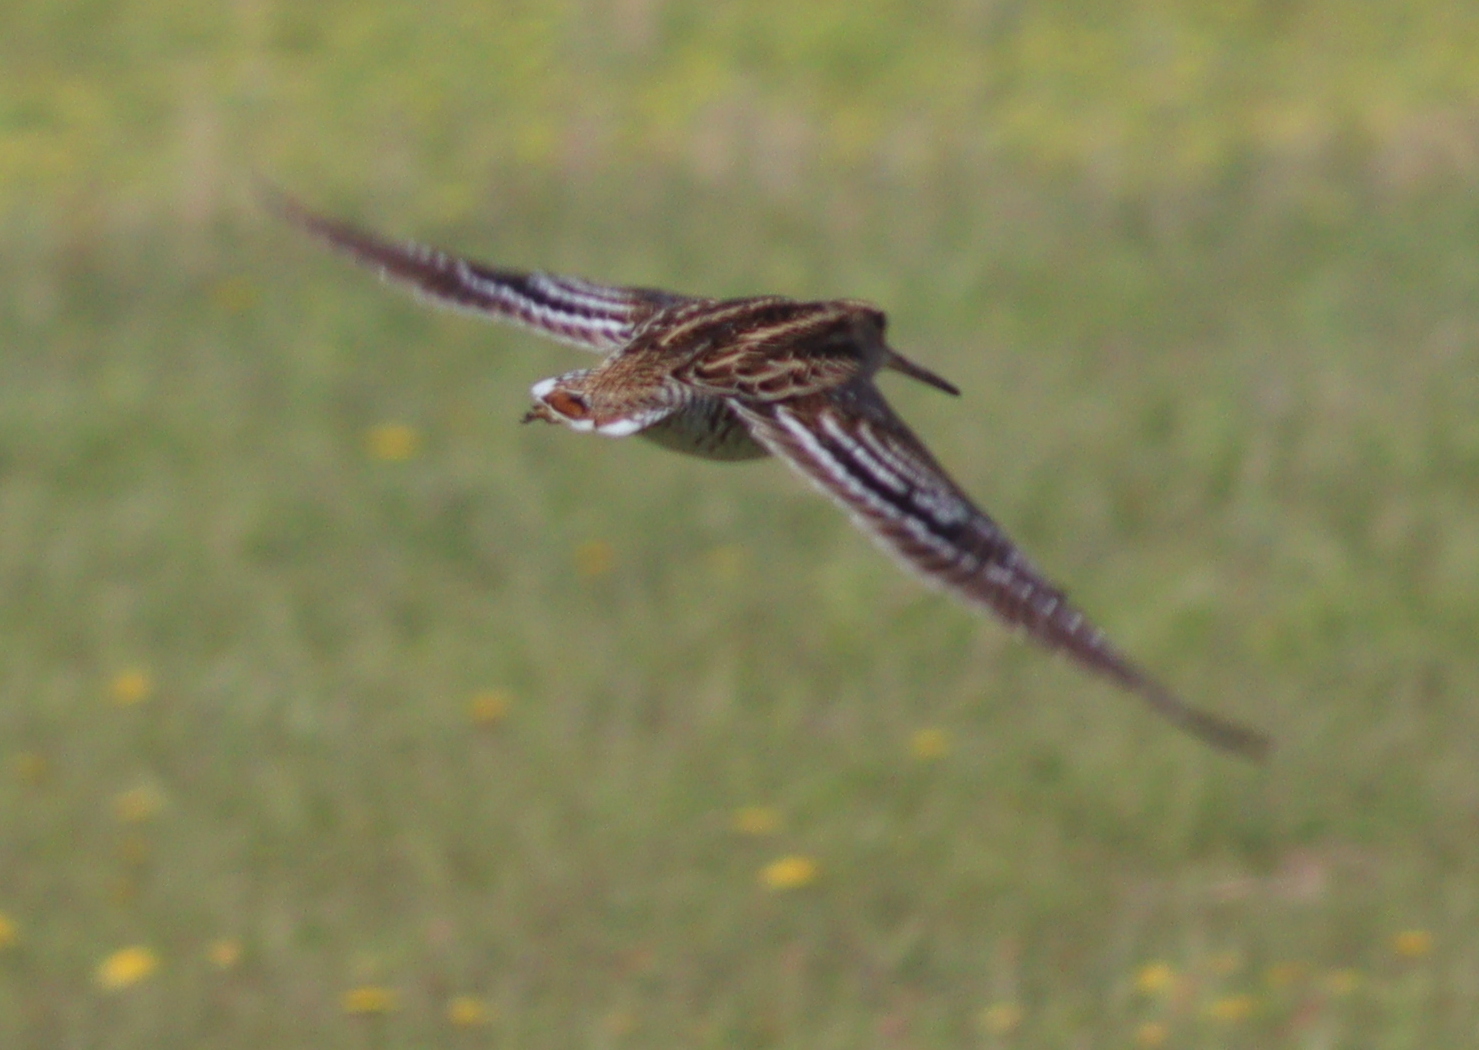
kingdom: Animalia
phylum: Chordata
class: Aves
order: Charadriiformes
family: Scolopacidae
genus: Gallinago
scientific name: Gallinago media
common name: Great snipe
